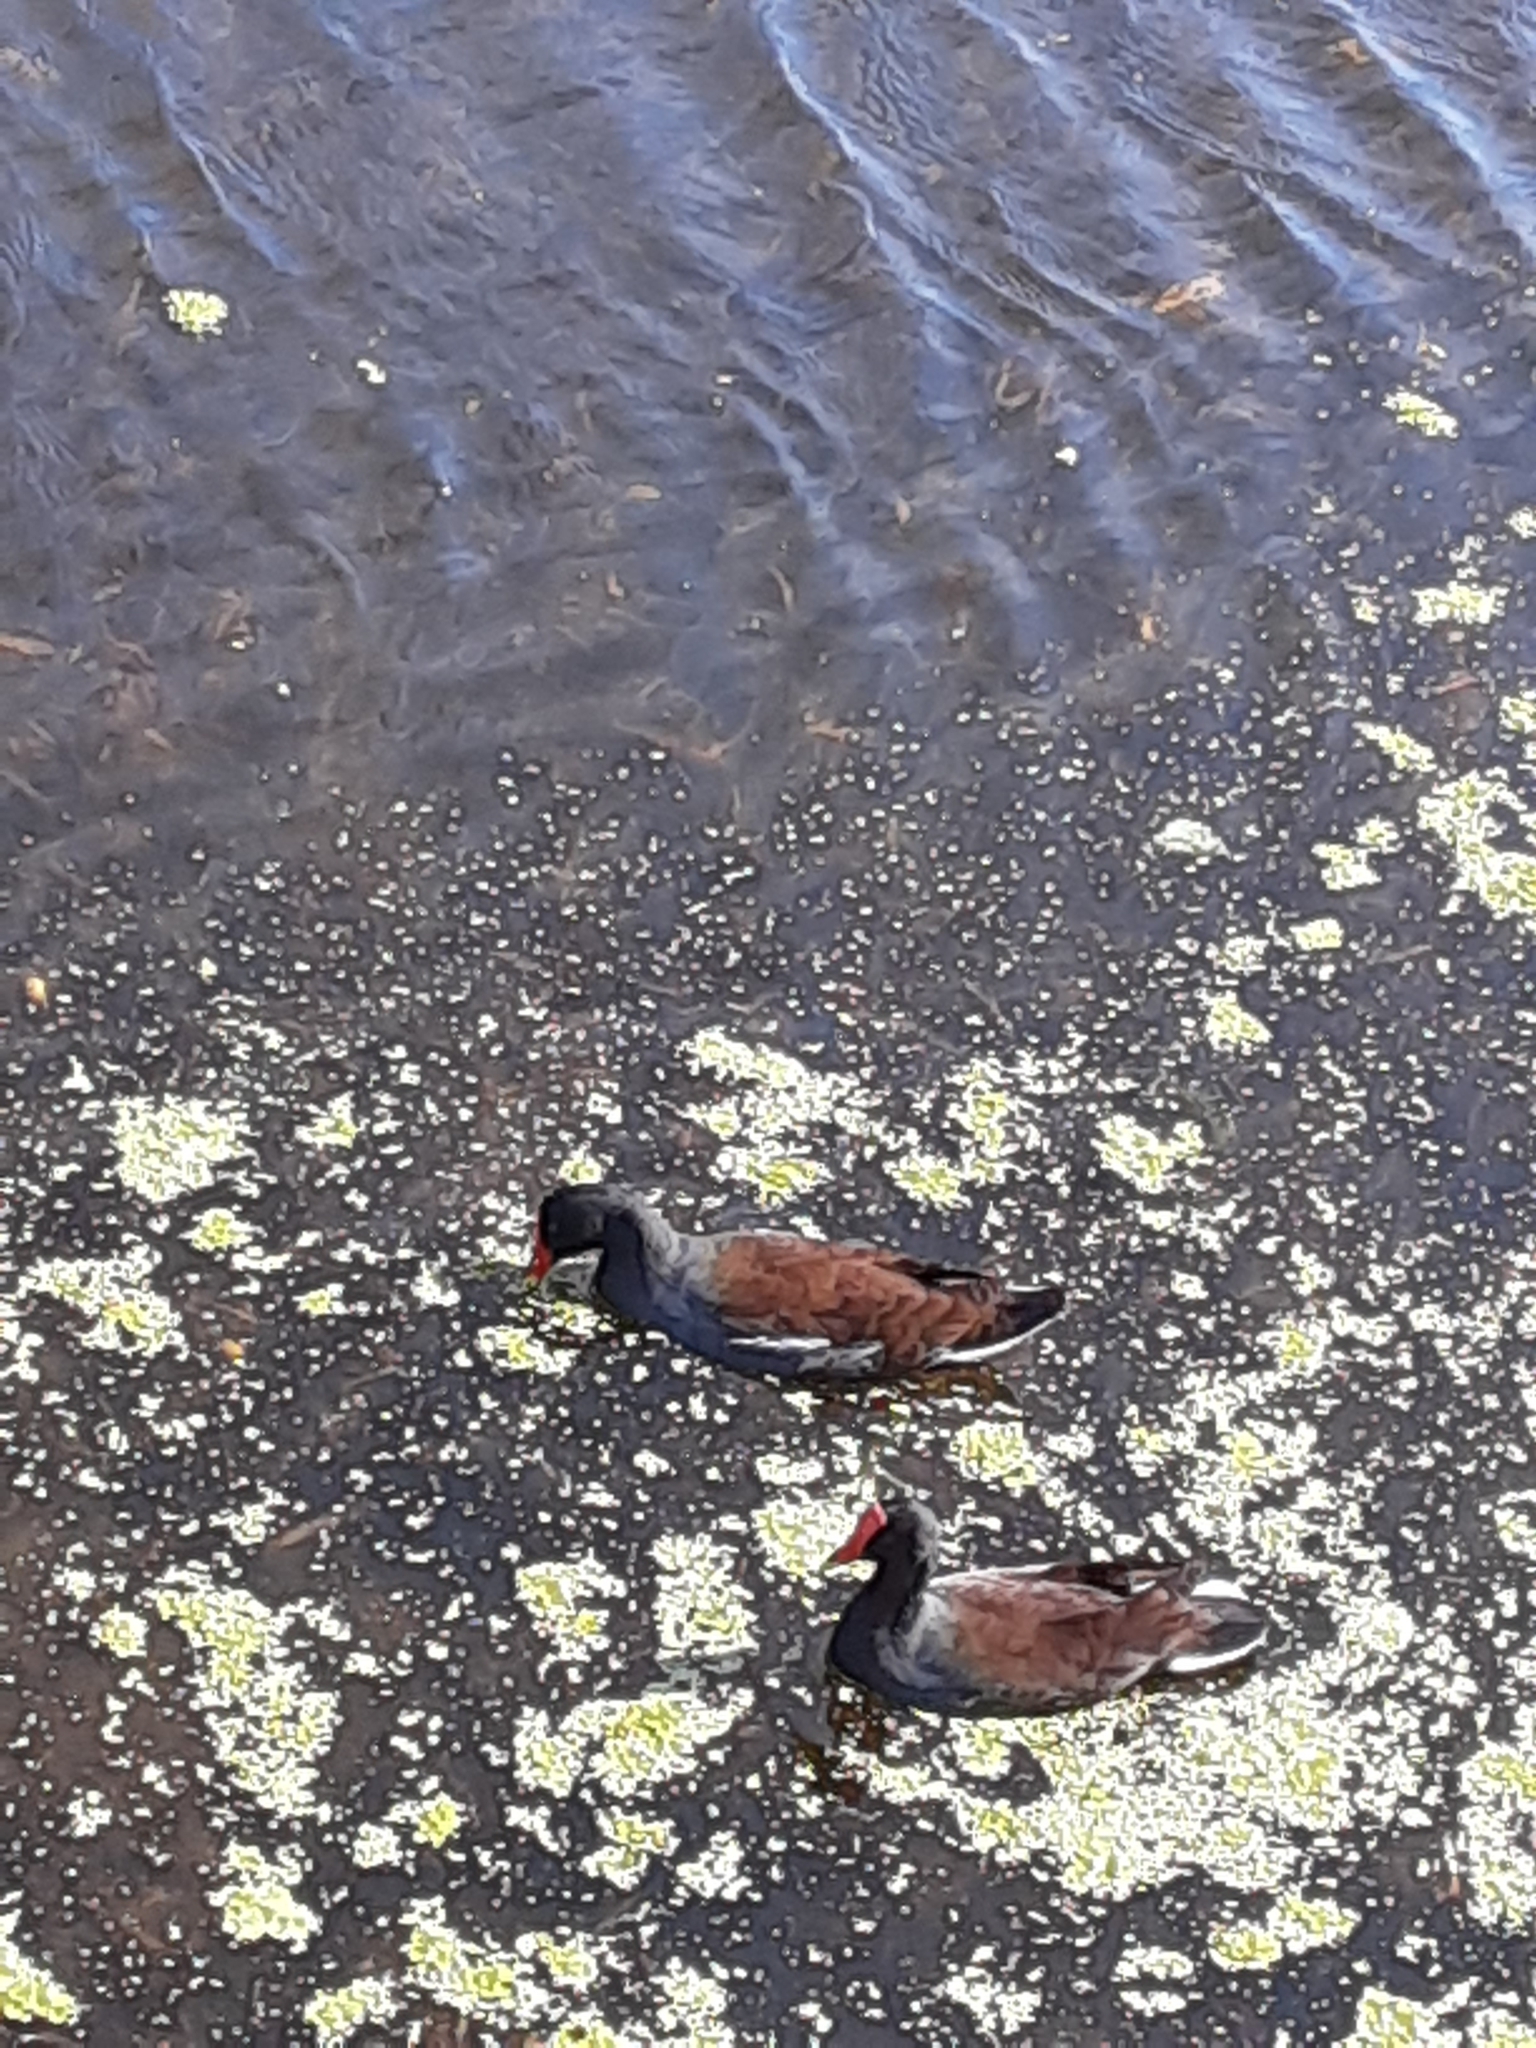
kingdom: Animalia
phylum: Chordata
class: Aves
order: Gruiformes
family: Rallidae
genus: Gallinula
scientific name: Gallinula chloropus
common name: Common moorhen
